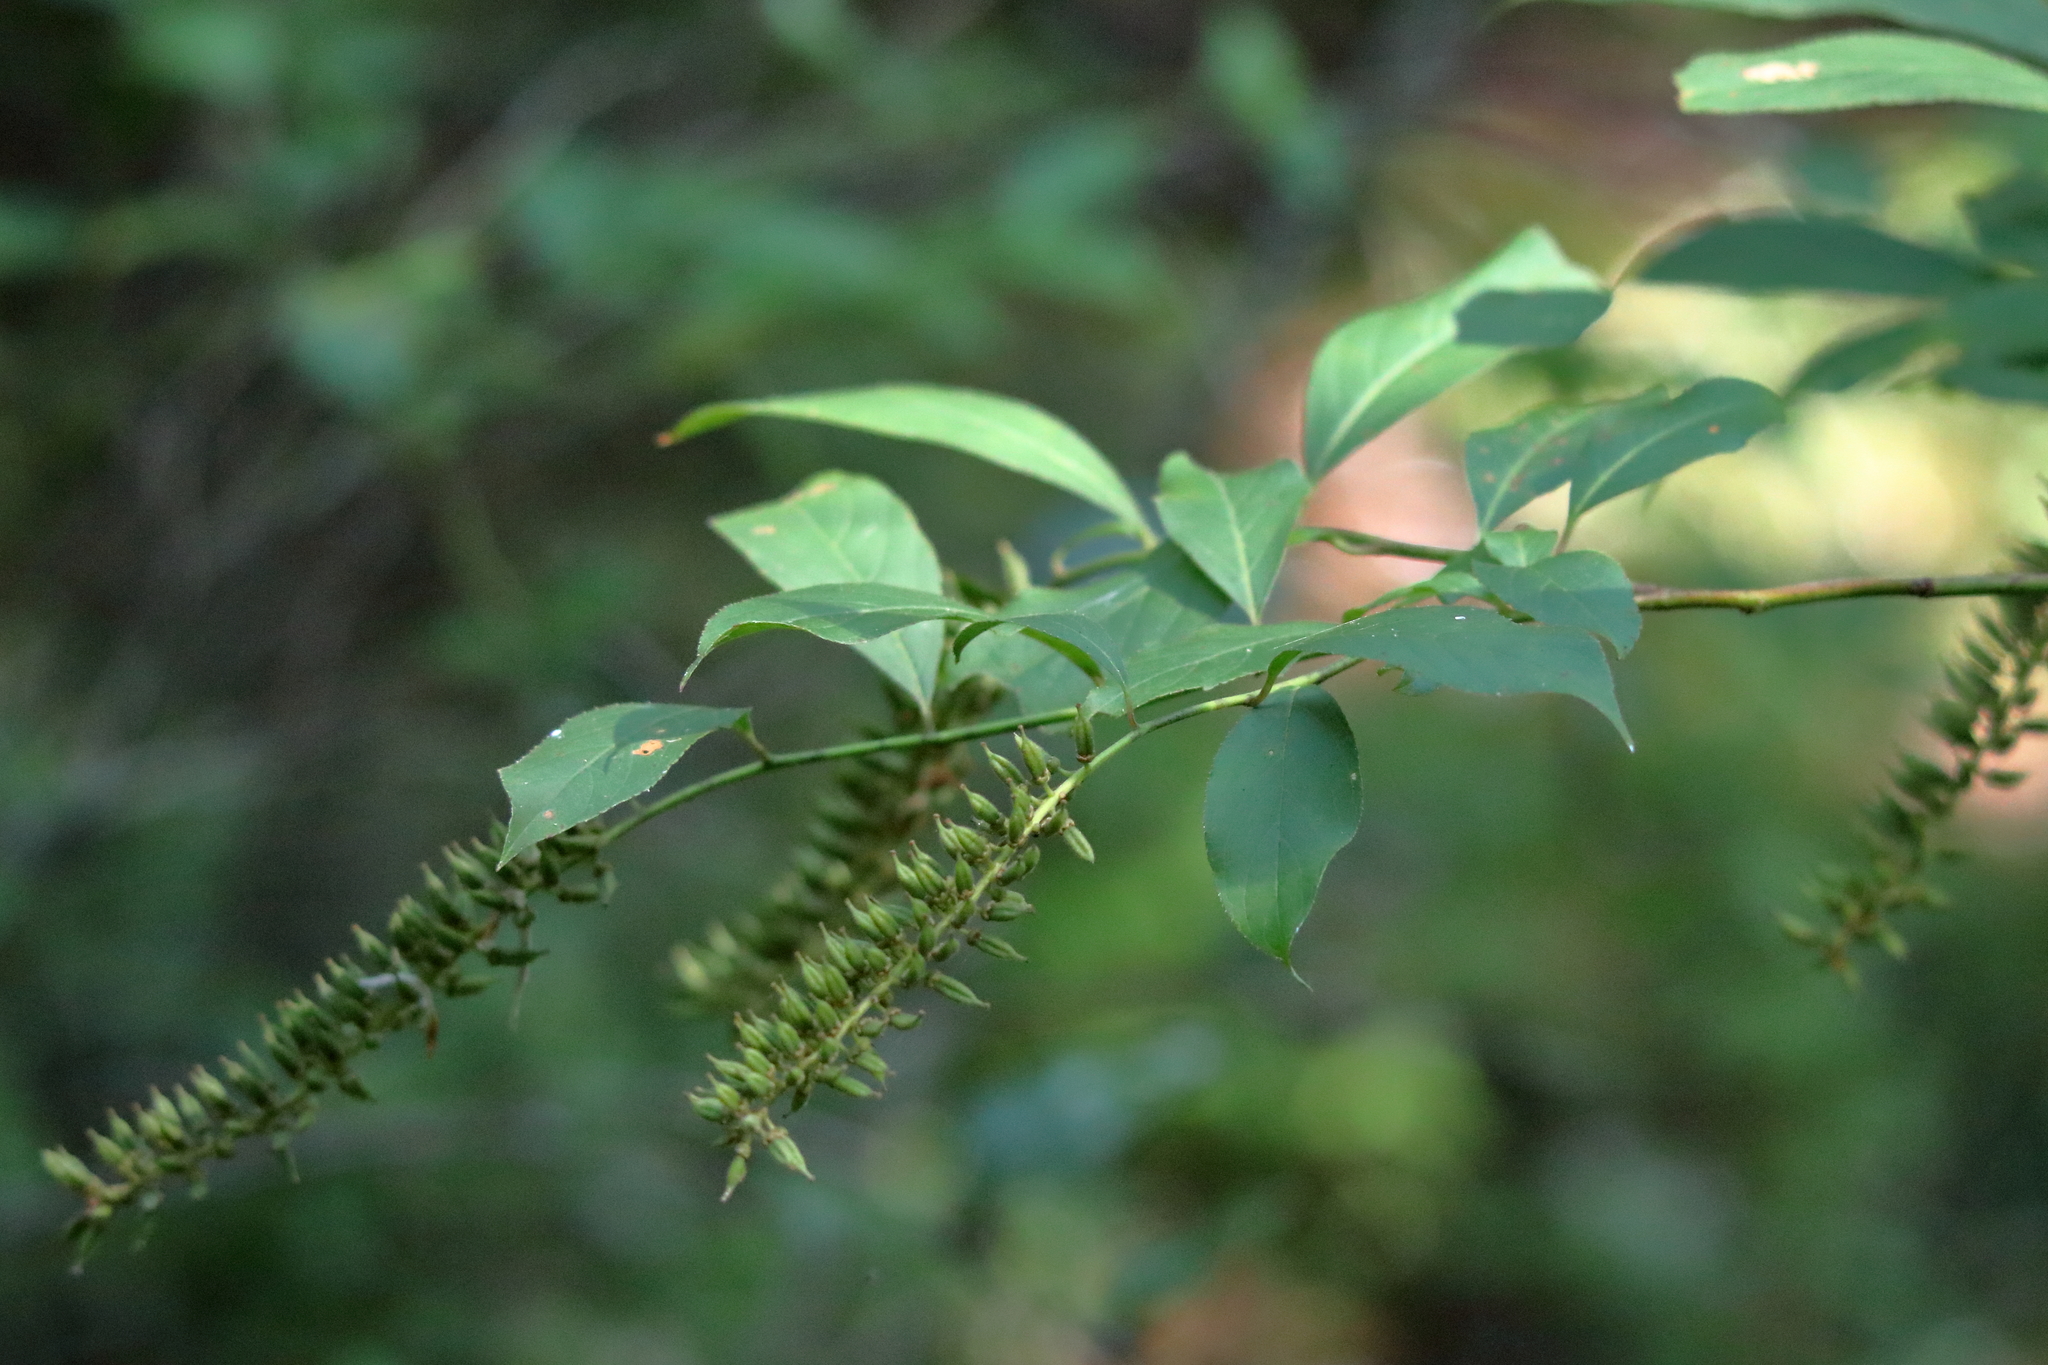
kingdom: Plantae
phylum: Tracheophyta
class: Magnoliopsida
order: Saxifragales
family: Iteaceae
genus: Itea
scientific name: Itea virginica
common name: Sweetspire
